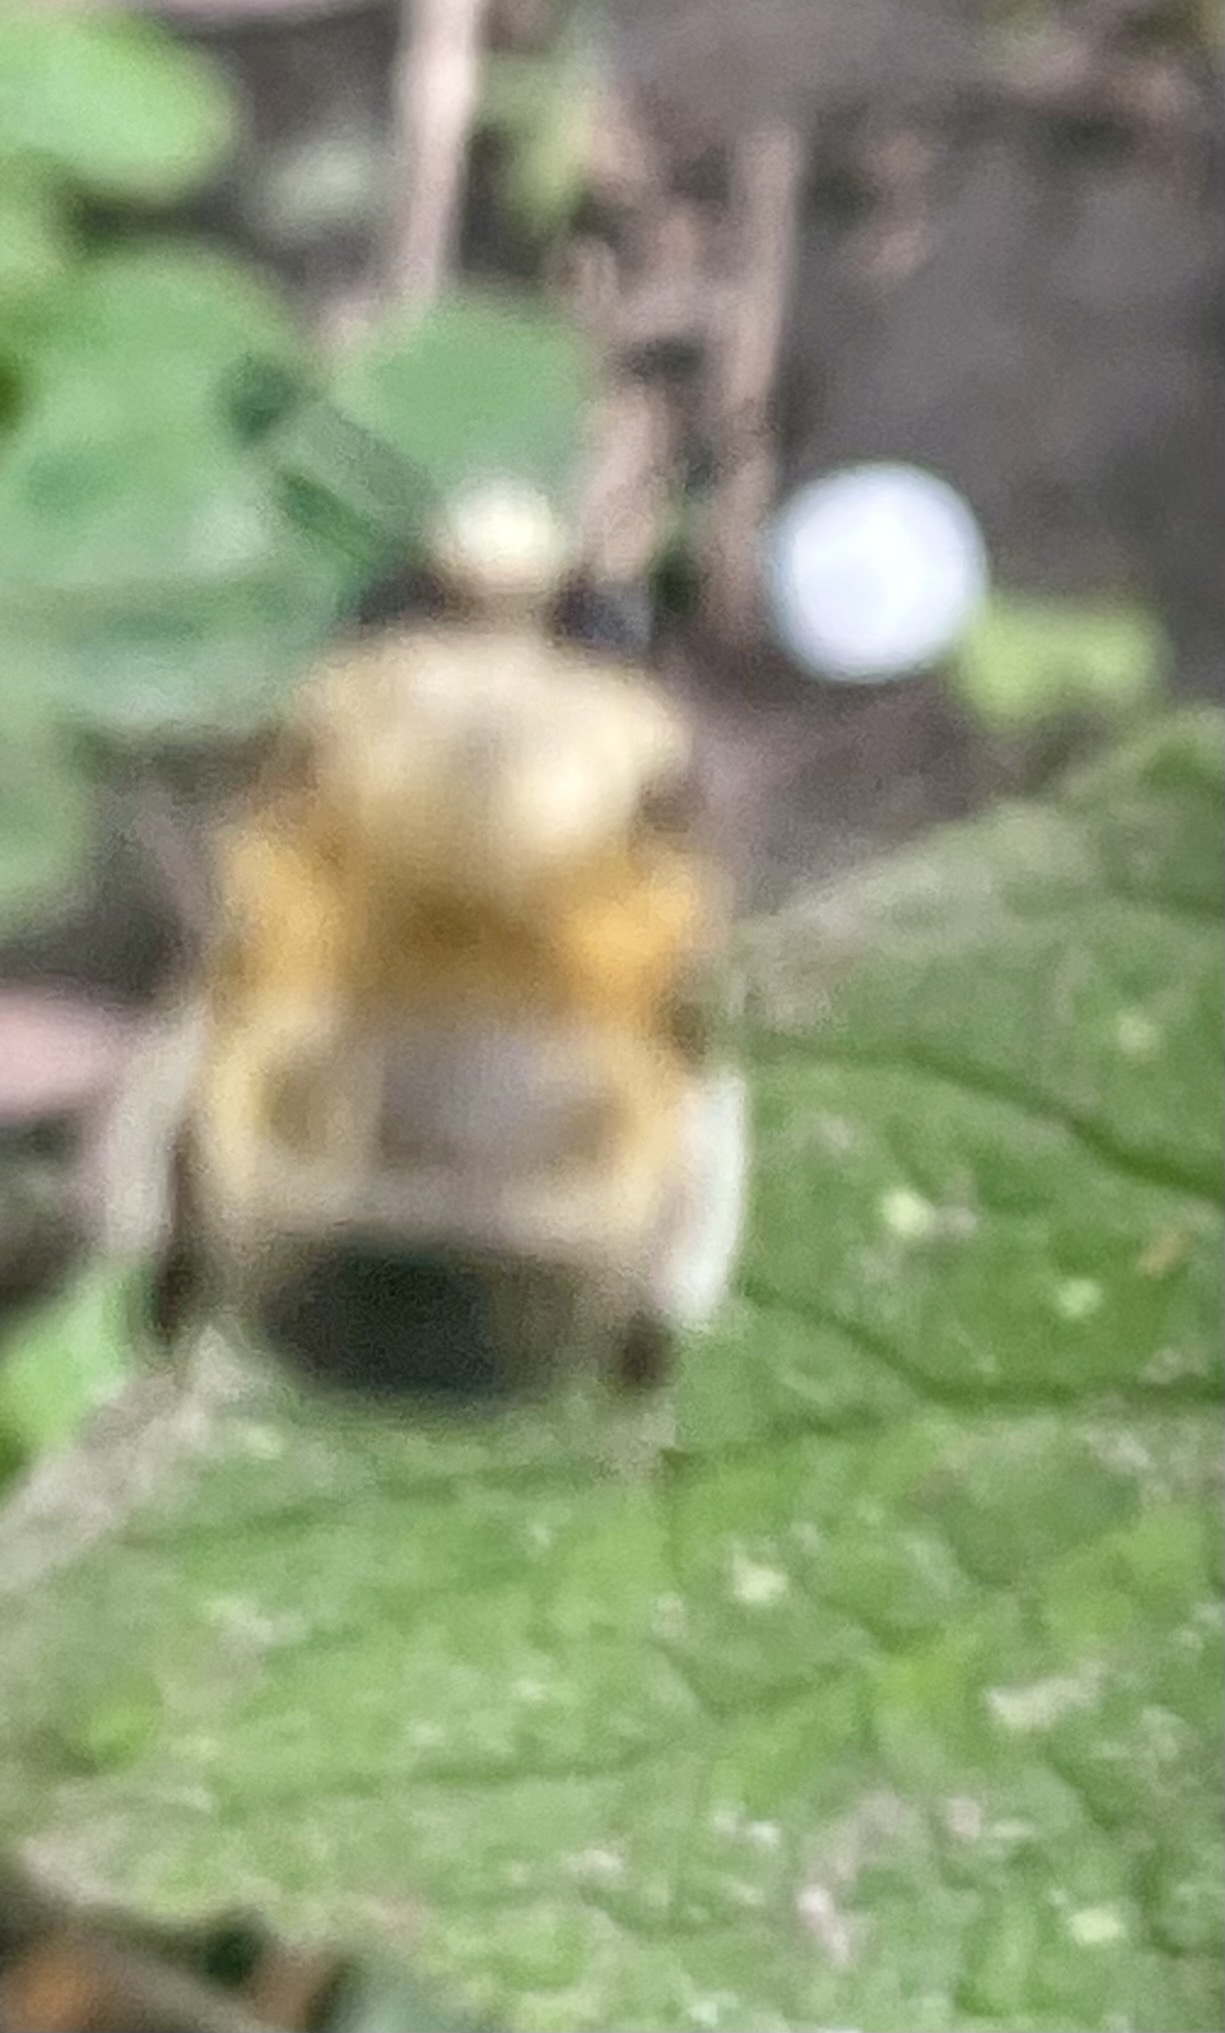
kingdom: Animalia
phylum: Arthropoda
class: Insecta
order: Hymenoptera
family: Apidae
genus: Anthophora
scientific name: Anthophora plumipes
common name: Hairy-footed flower bee
